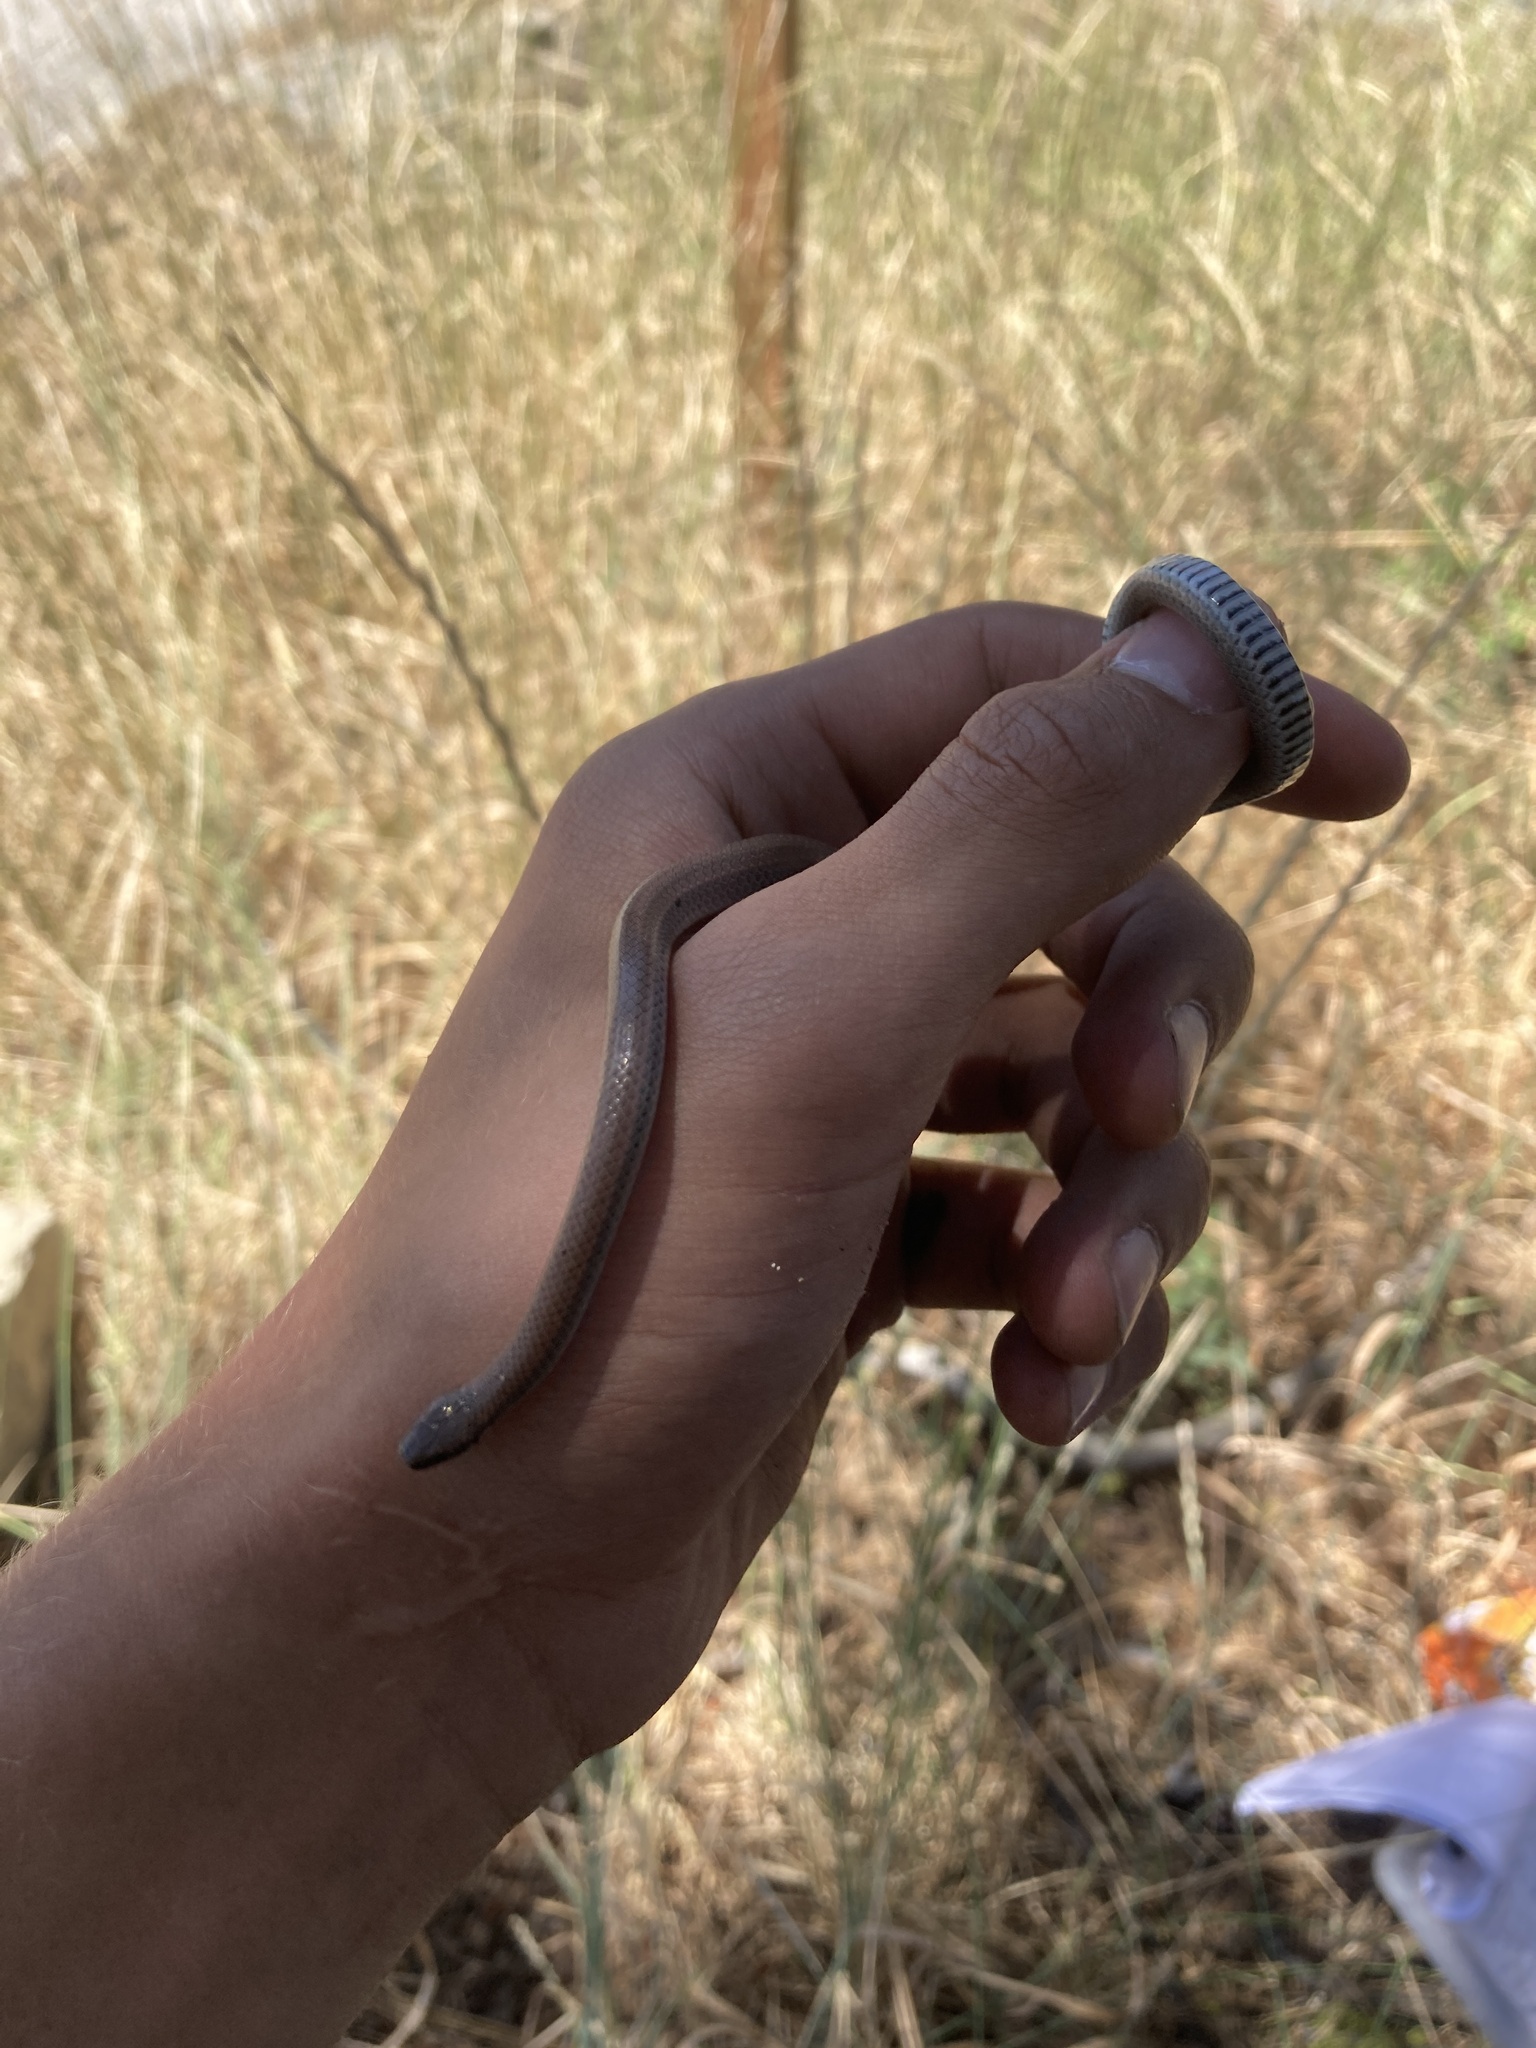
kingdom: Animalia
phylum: Chordata
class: Squamata
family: Colubridae
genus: Contia
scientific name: Contia tenuis
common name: Sharptail snake
